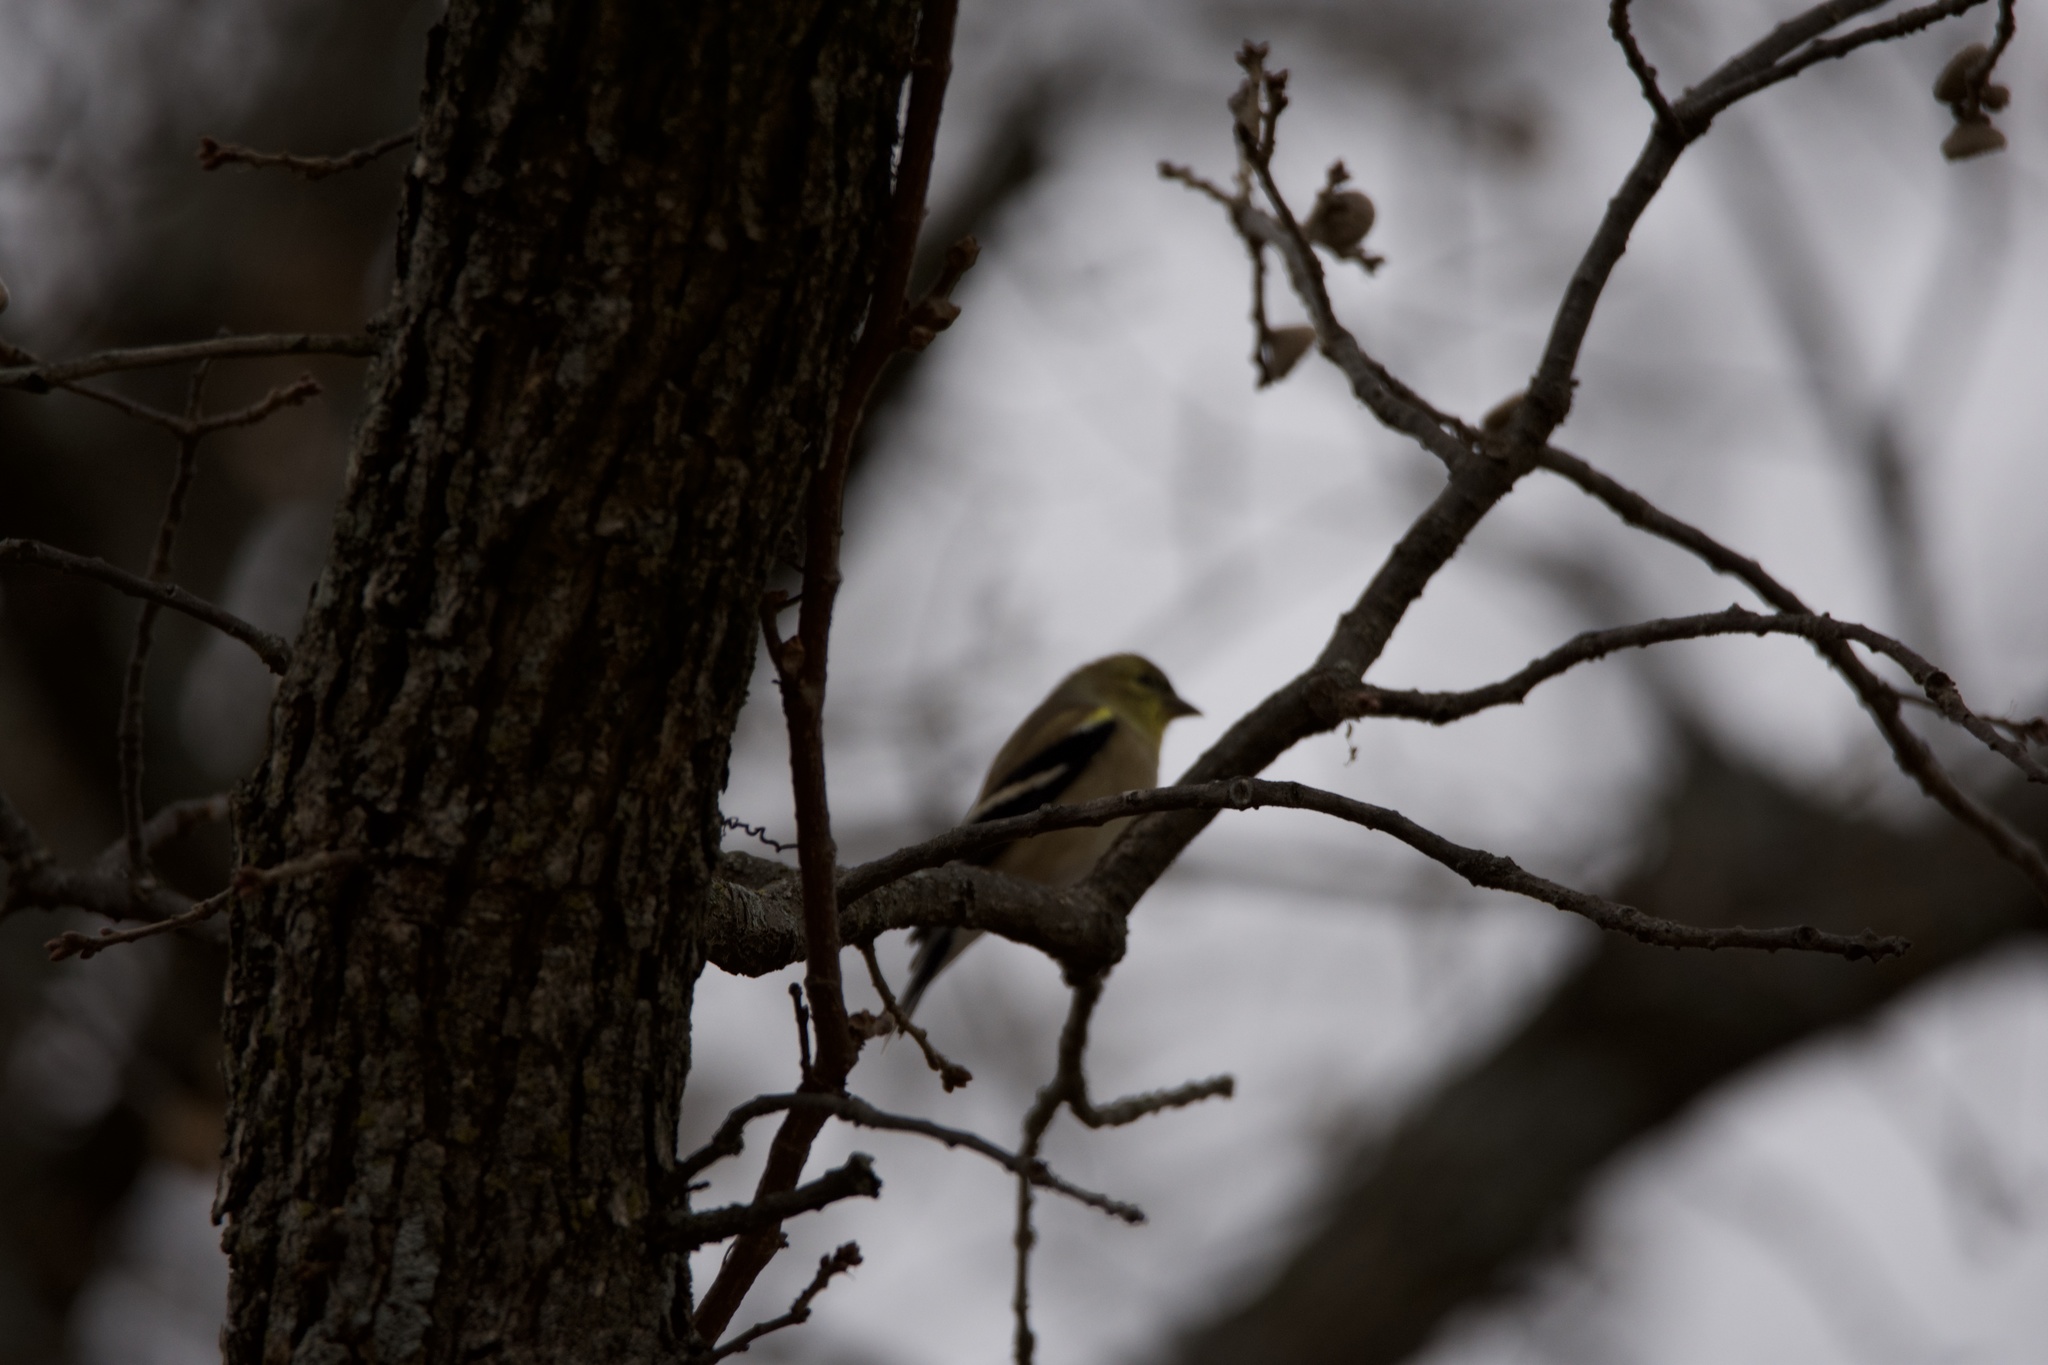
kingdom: Animalia
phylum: Chordata
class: Aves
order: Passeriformes
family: Fringillidae
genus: Spinus
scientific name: Spinus tristis
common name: American goldfinch
